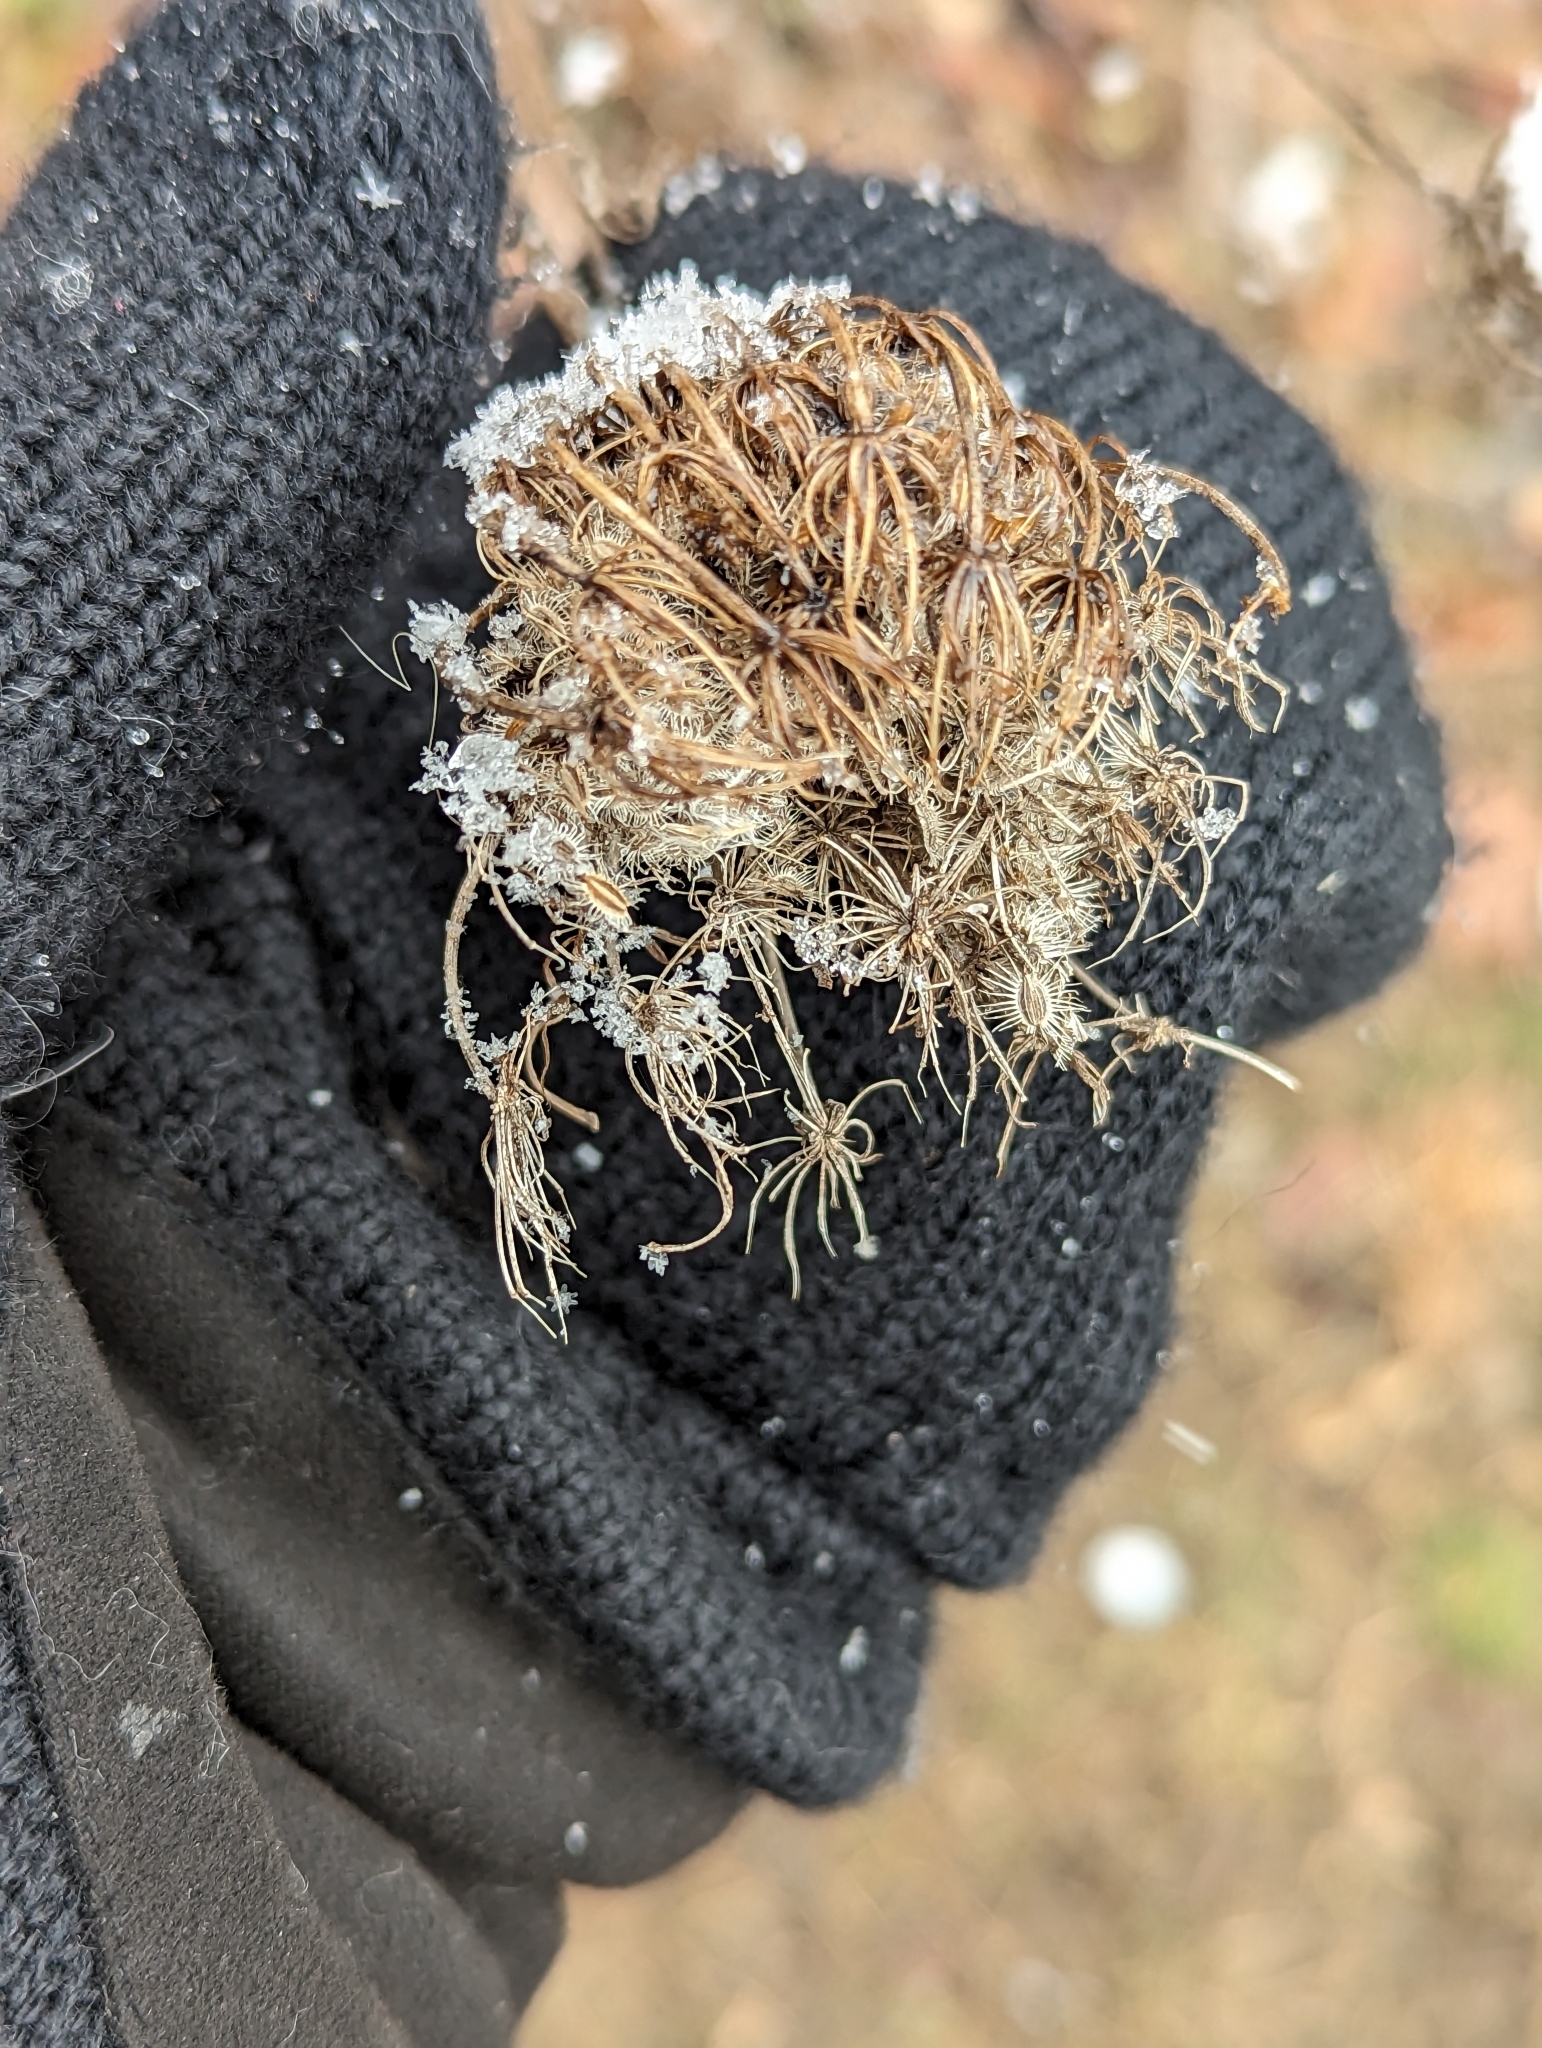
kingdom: Plantae
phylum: Tracheophyta
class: Magnoliopsida
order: Apiales
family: Apiaceae
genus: Daucus
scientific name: Daucus carota
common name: Wild carrot
